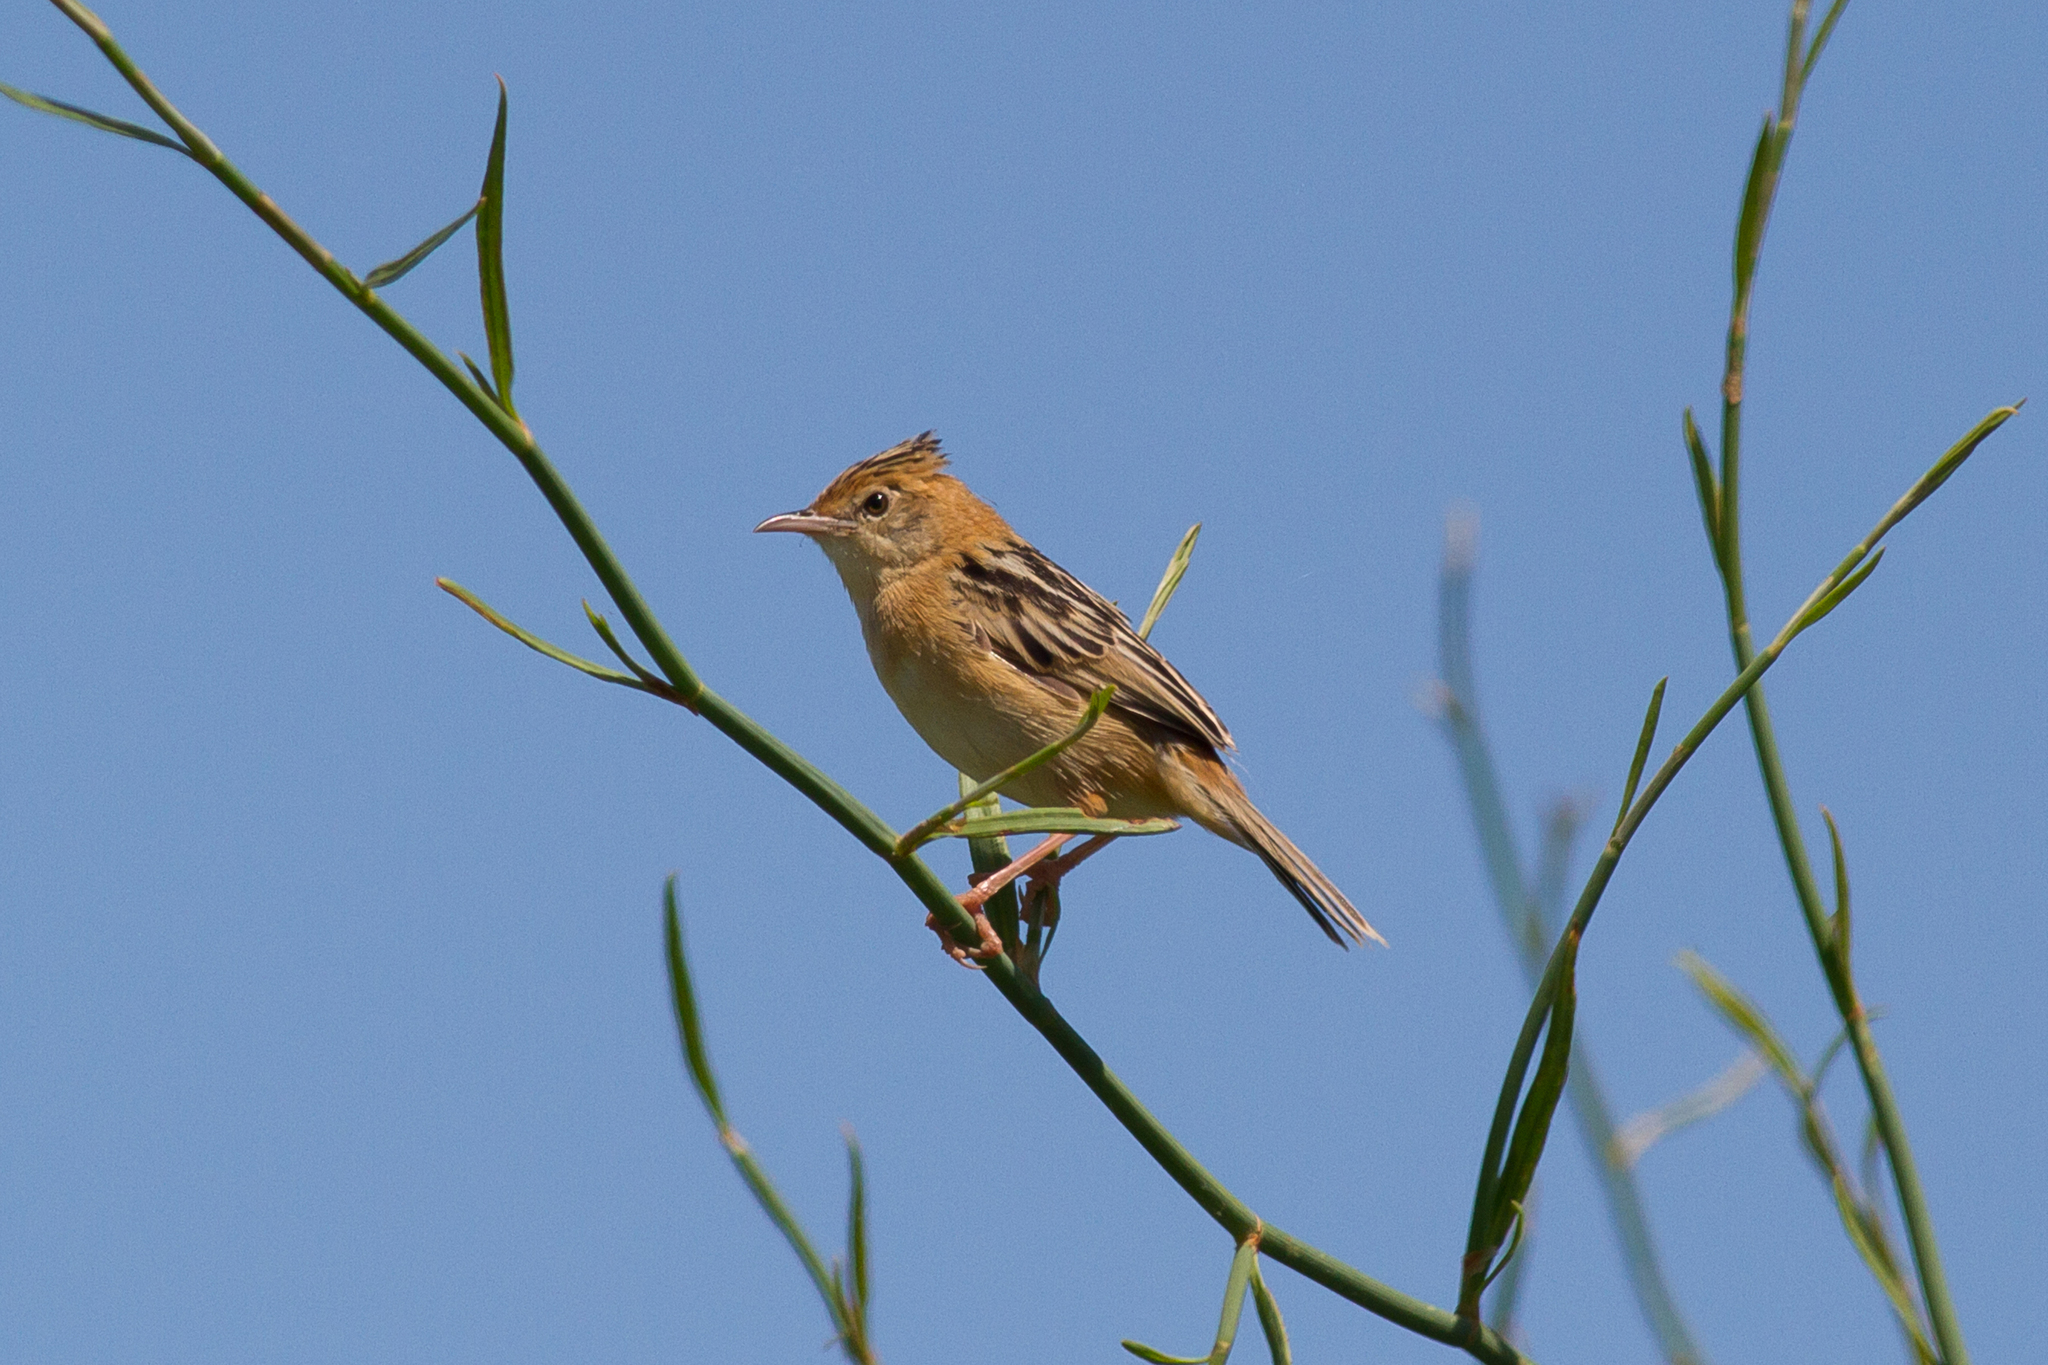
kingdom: Animalia
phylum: Chordata
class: Aves
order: Passeriformes
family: Cisticolidae
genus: Cisticola
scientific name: Cisticola exilis
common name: Golden-headed cisticola
